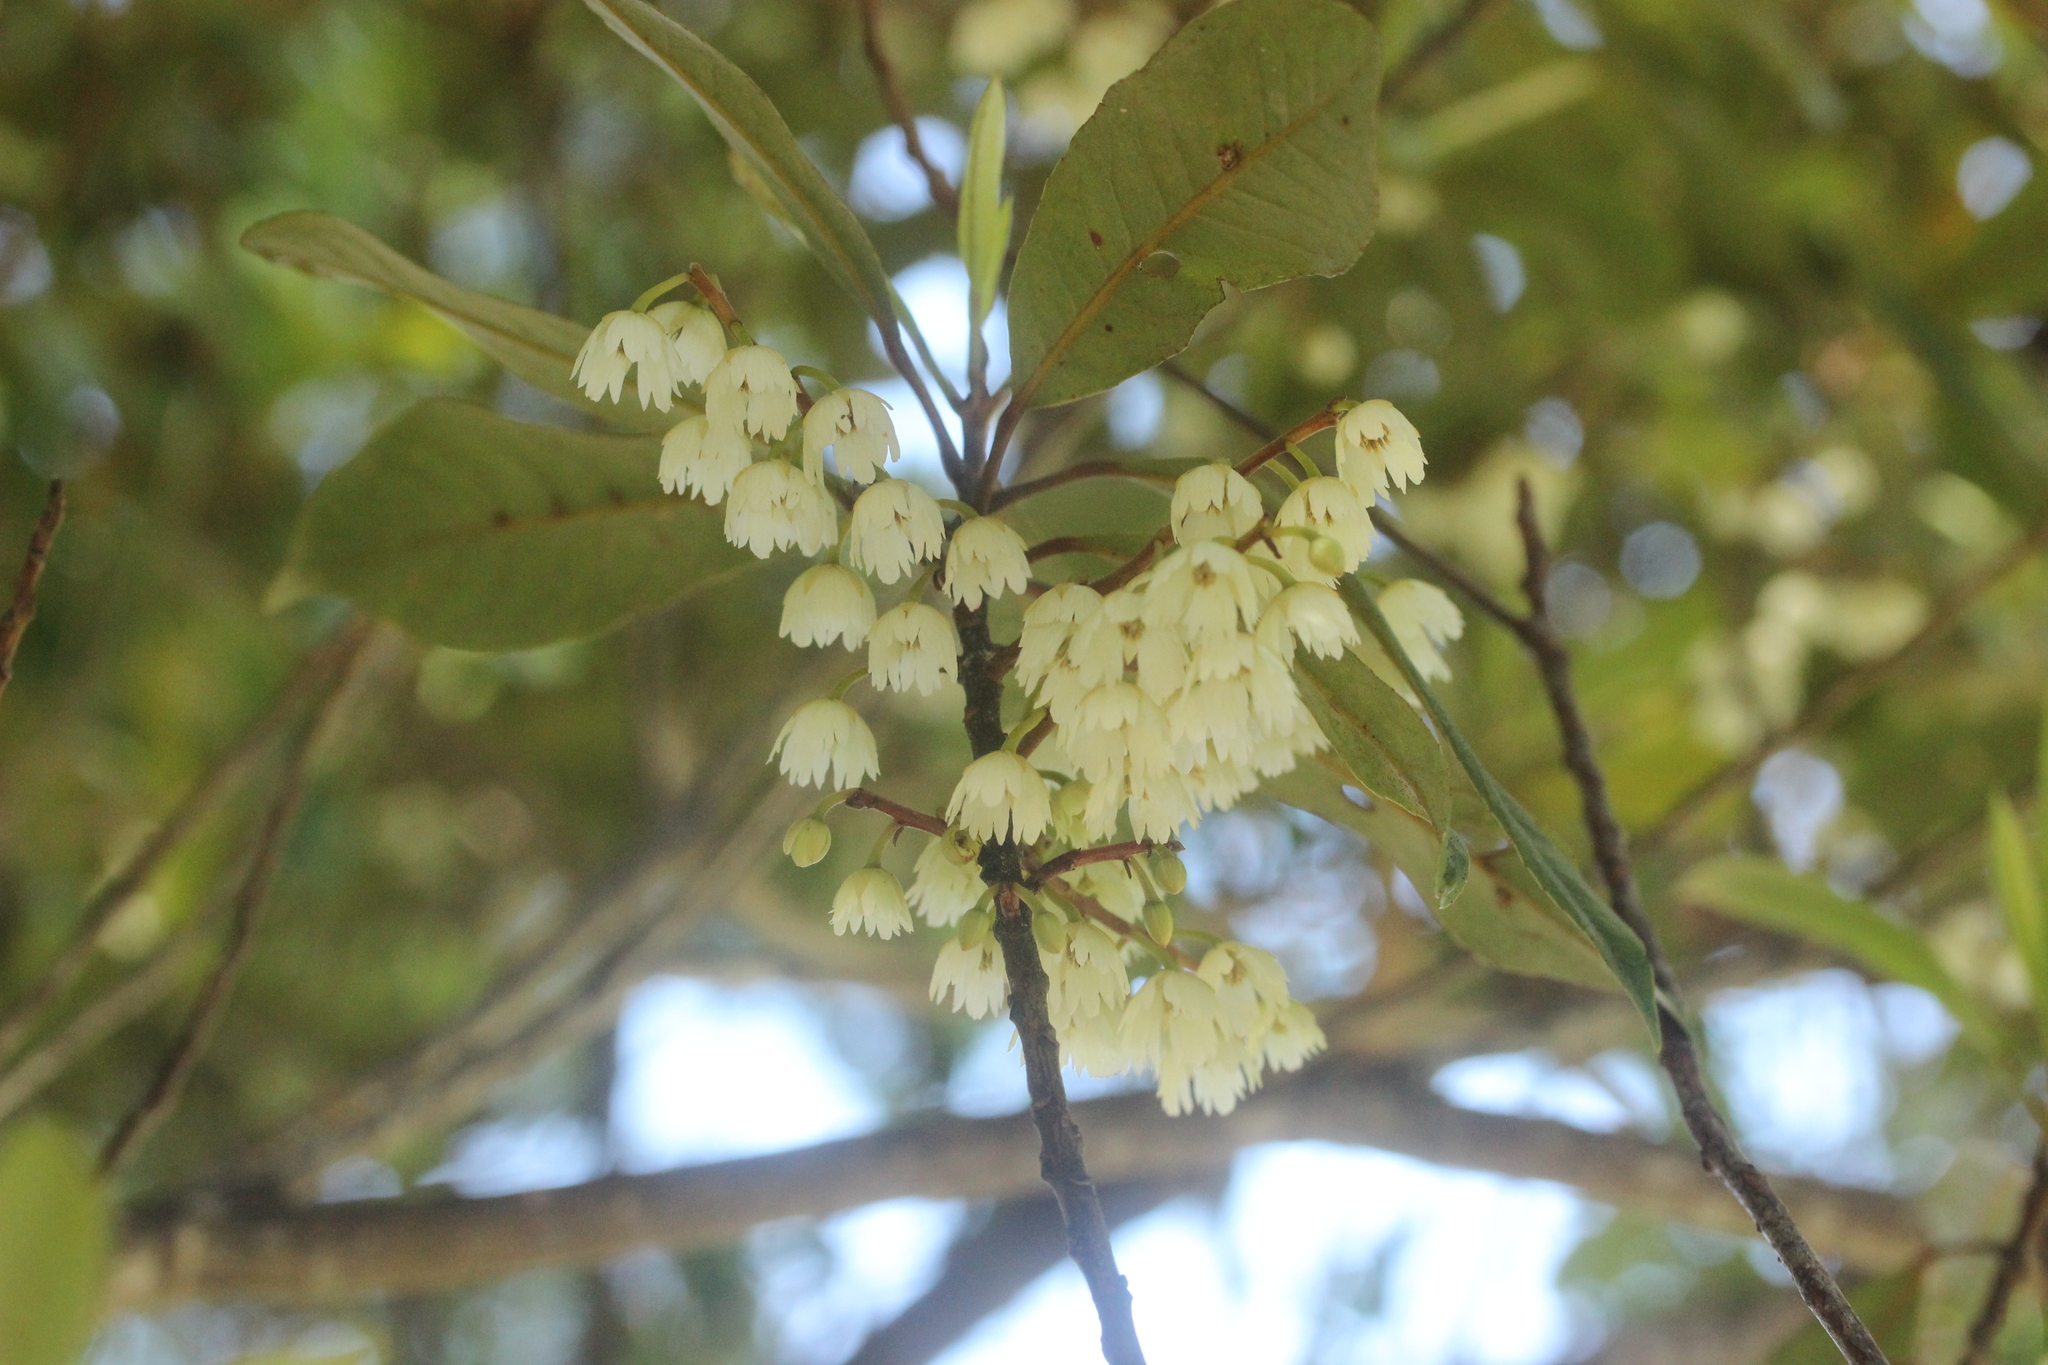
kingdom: Plantae
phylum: Tracheophyta
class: Magnoliopsida
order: Oxalidales
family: Elaeocarpaceae
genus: Elaeocarpus
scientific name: Elaeocarpus dentatus
